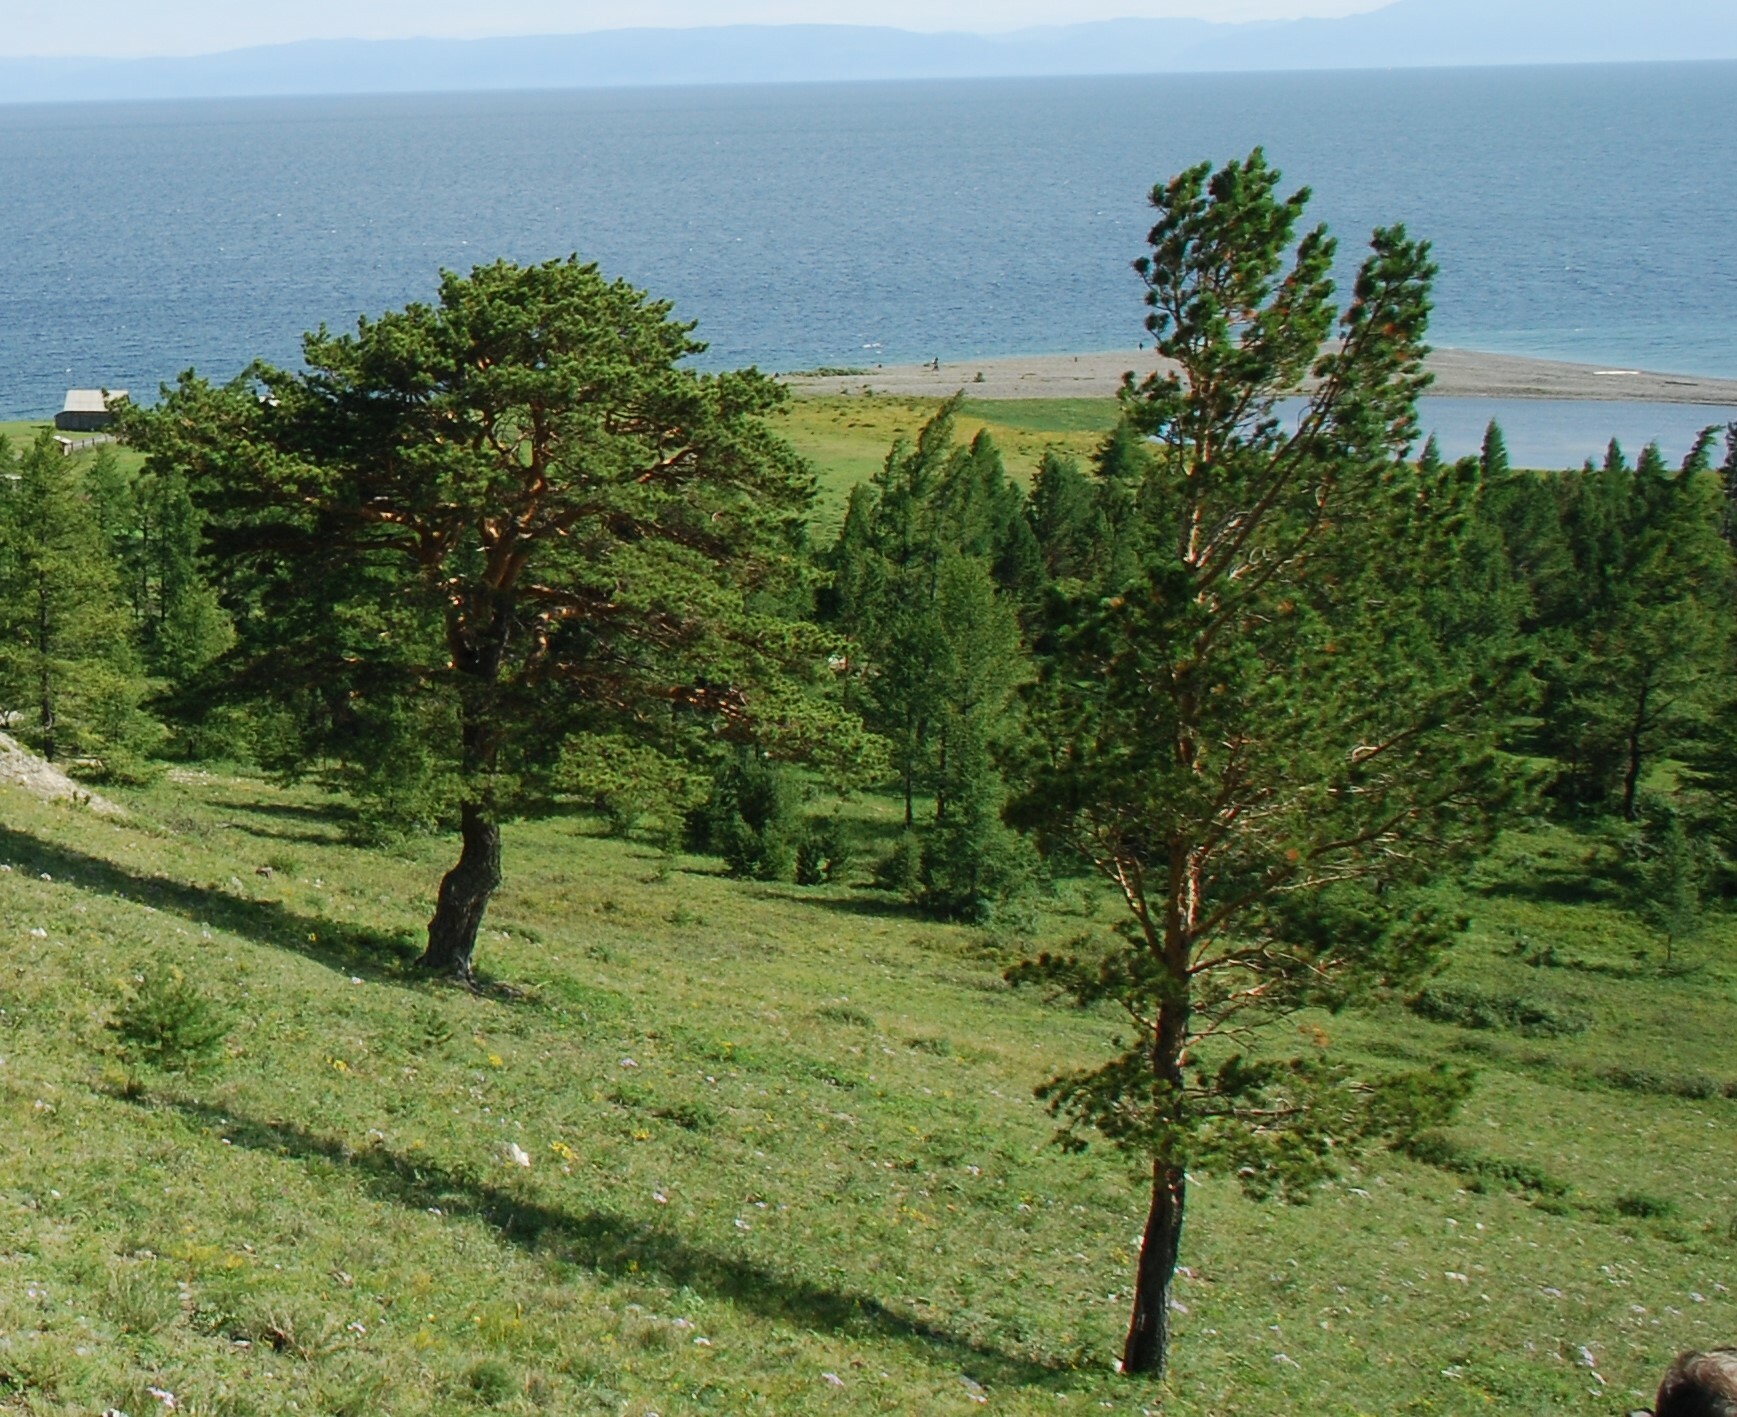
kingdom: Plantae
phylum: Tracheophyta
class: Pinopsida
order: Pinales
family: Pinaceae
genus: Pinus
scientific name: Pinus sylvestris
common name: Scots pine
